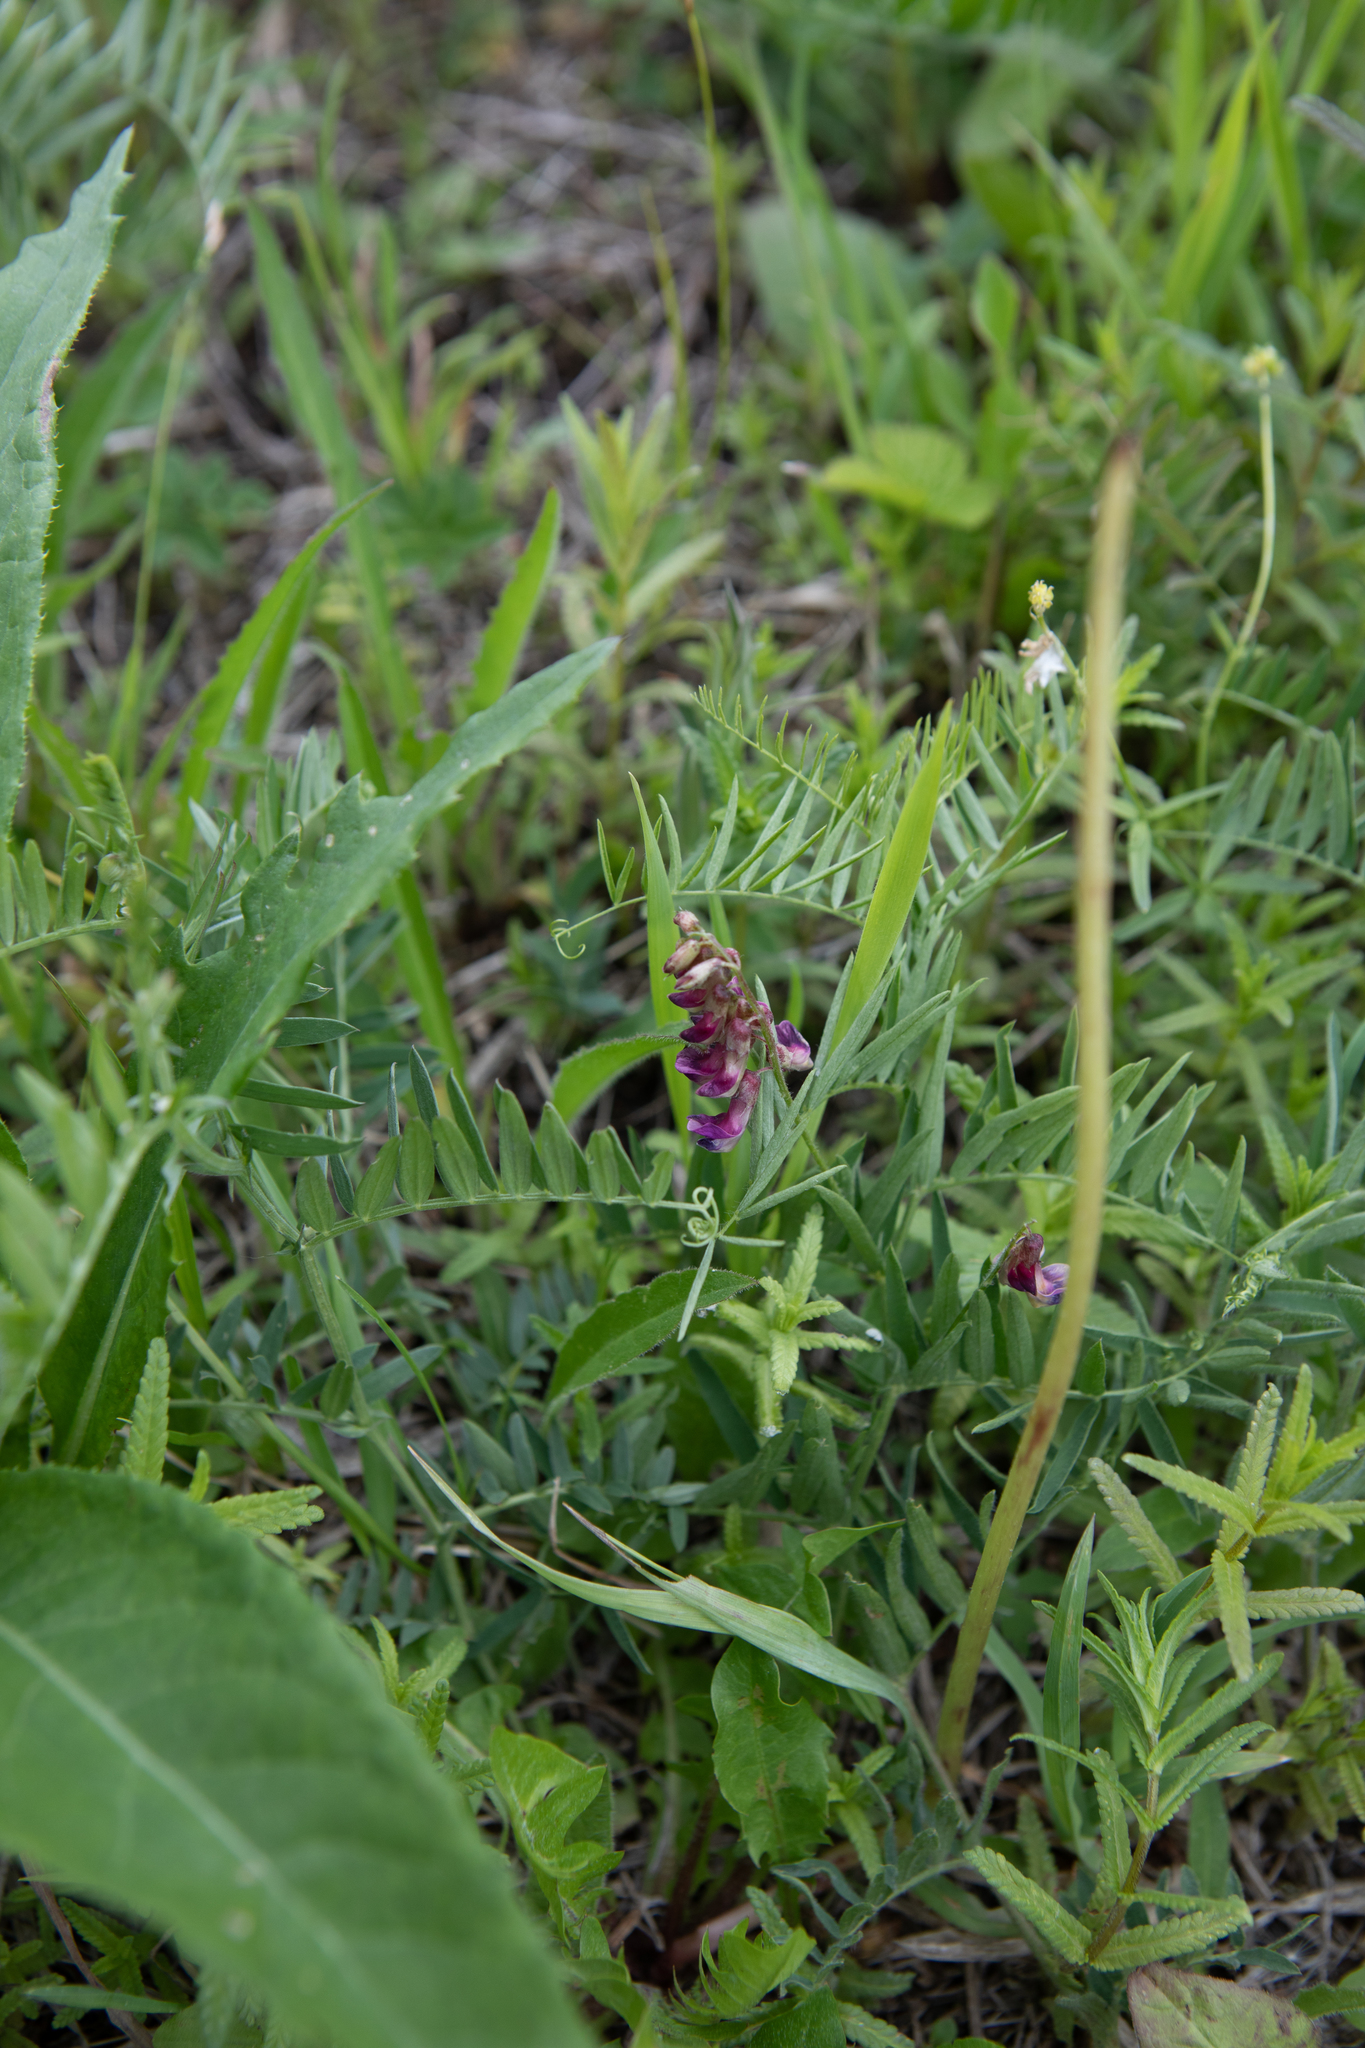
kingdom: Plantae
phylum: Tracheophyta
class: Magnoliopsida
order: Fabales
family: Fabaceae
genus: Vicia
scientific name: Vicia sepium
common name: Bush vetch
